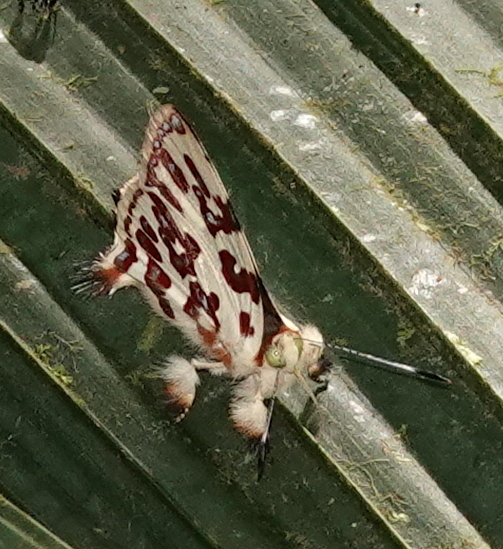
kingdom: Animalia
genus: Anteros
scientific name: Anteros acheus
